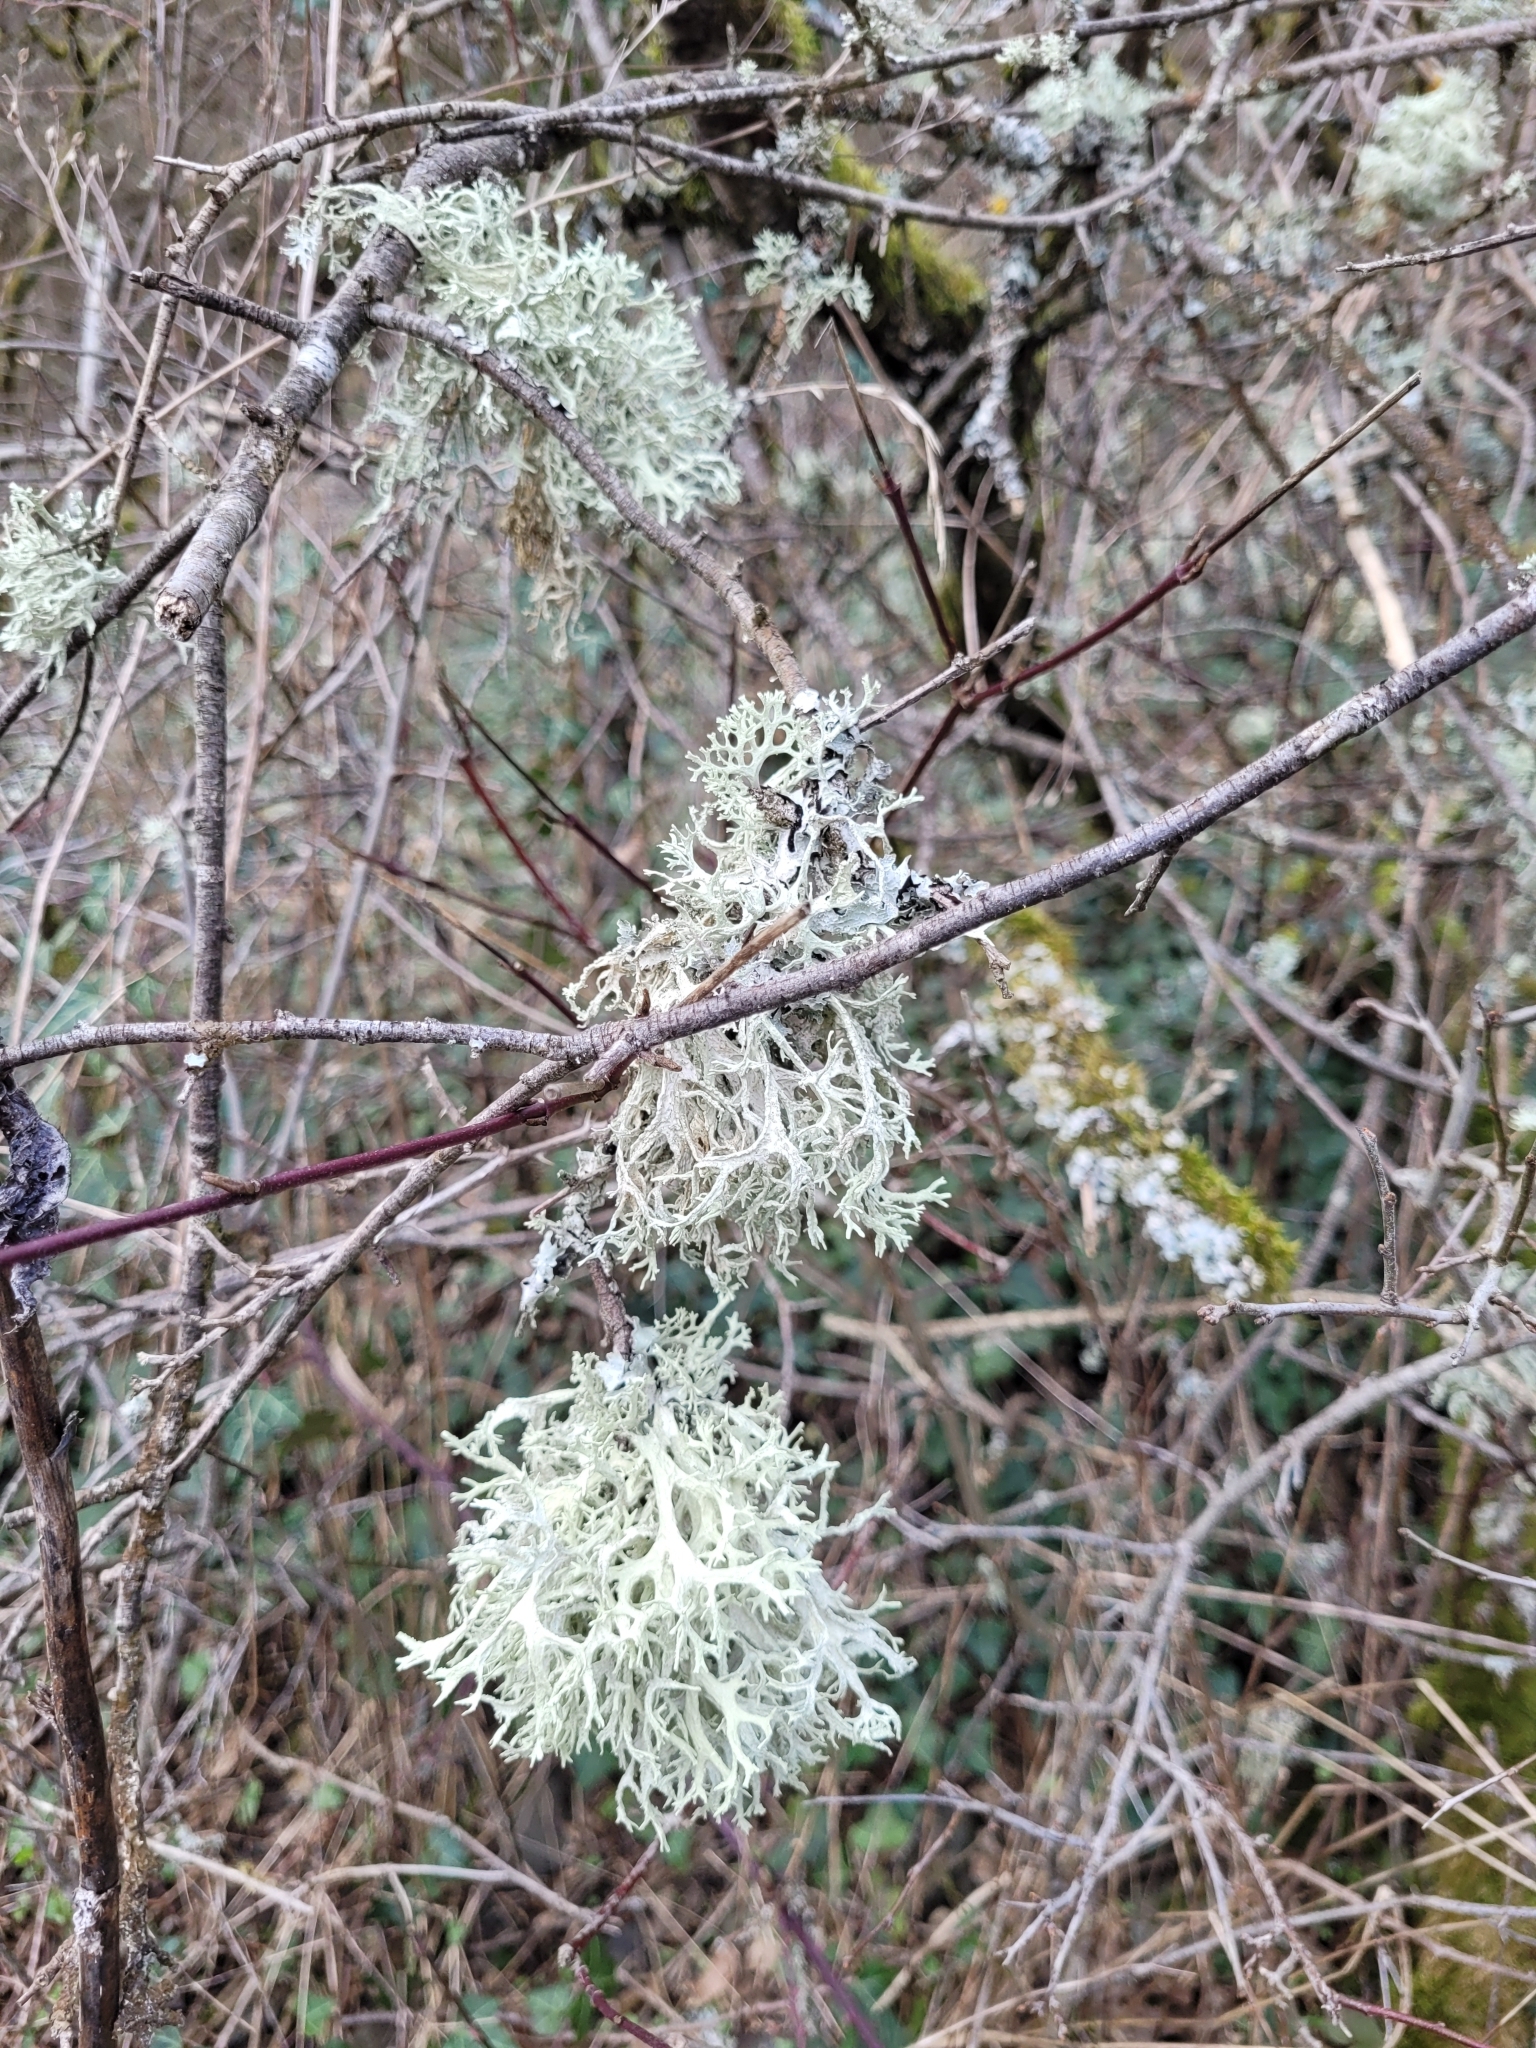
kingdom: Fungi
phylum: Ascomycota
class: Lecanoromycetes
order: Lecanorales
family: Parmeliaceae
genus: Evernia
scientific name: Evernia prunastri
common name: Oak moss
